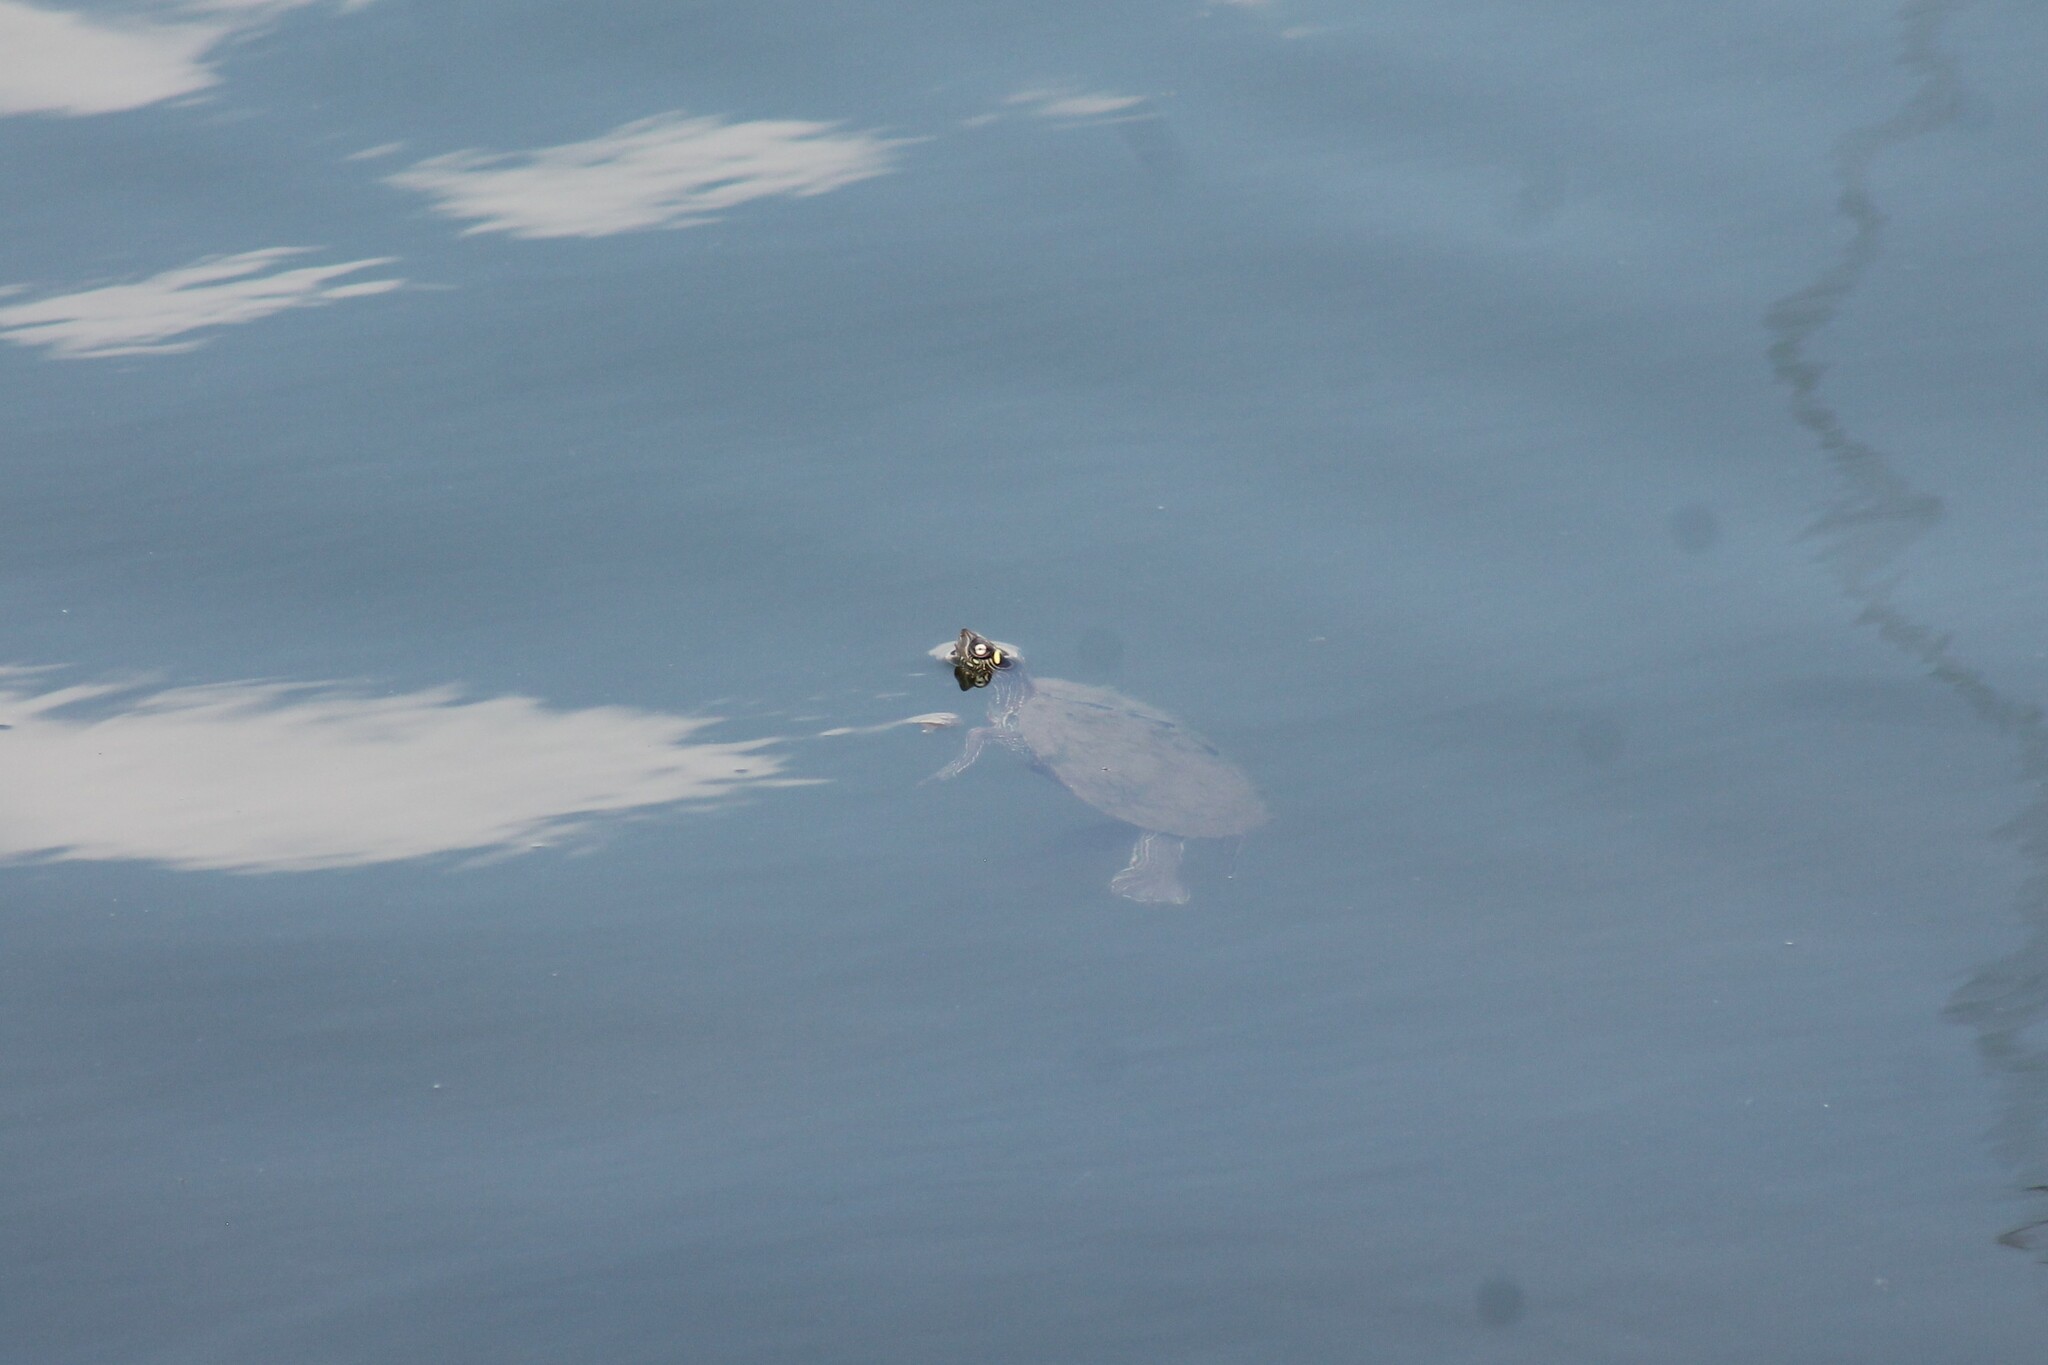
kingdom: Animalia
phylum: Chordata
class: Testudines
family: Emydidae
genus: Graptemys
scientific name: Graptemys ouachitensis
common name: Ouachita map turtle
